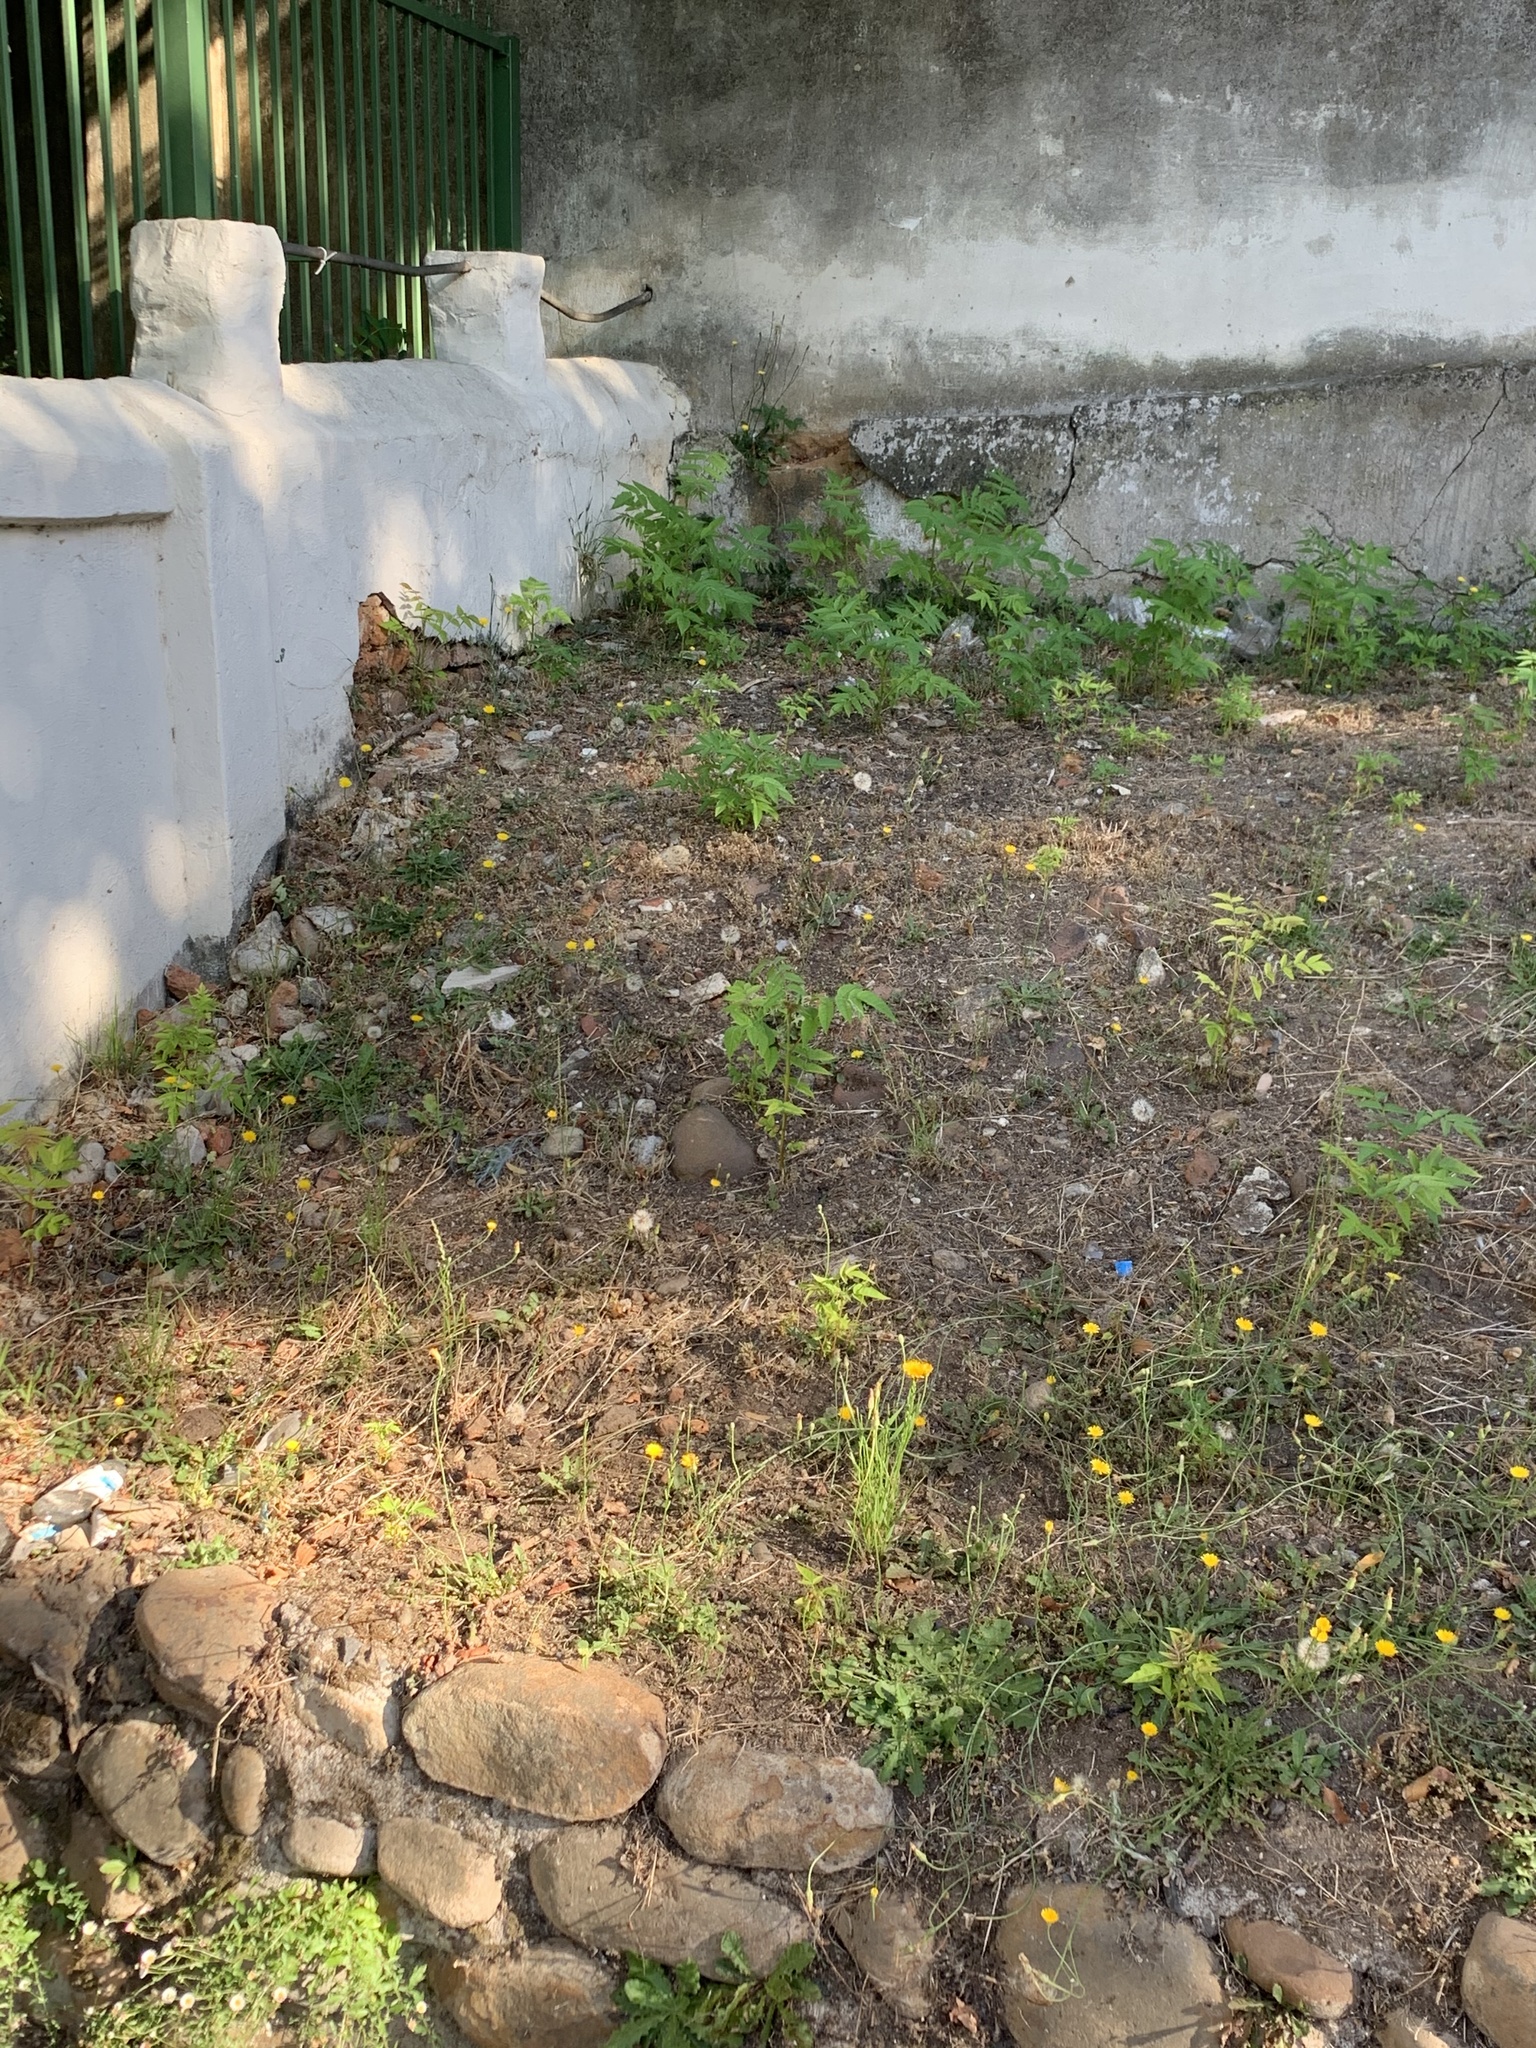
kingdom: Plantae
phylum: Tracheophyta
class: Magnoliopsida
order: Sapindales
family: Simaroubaceae
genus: Ailanthus
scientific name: Ailanthus altissima
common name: Tree-of-heaven
